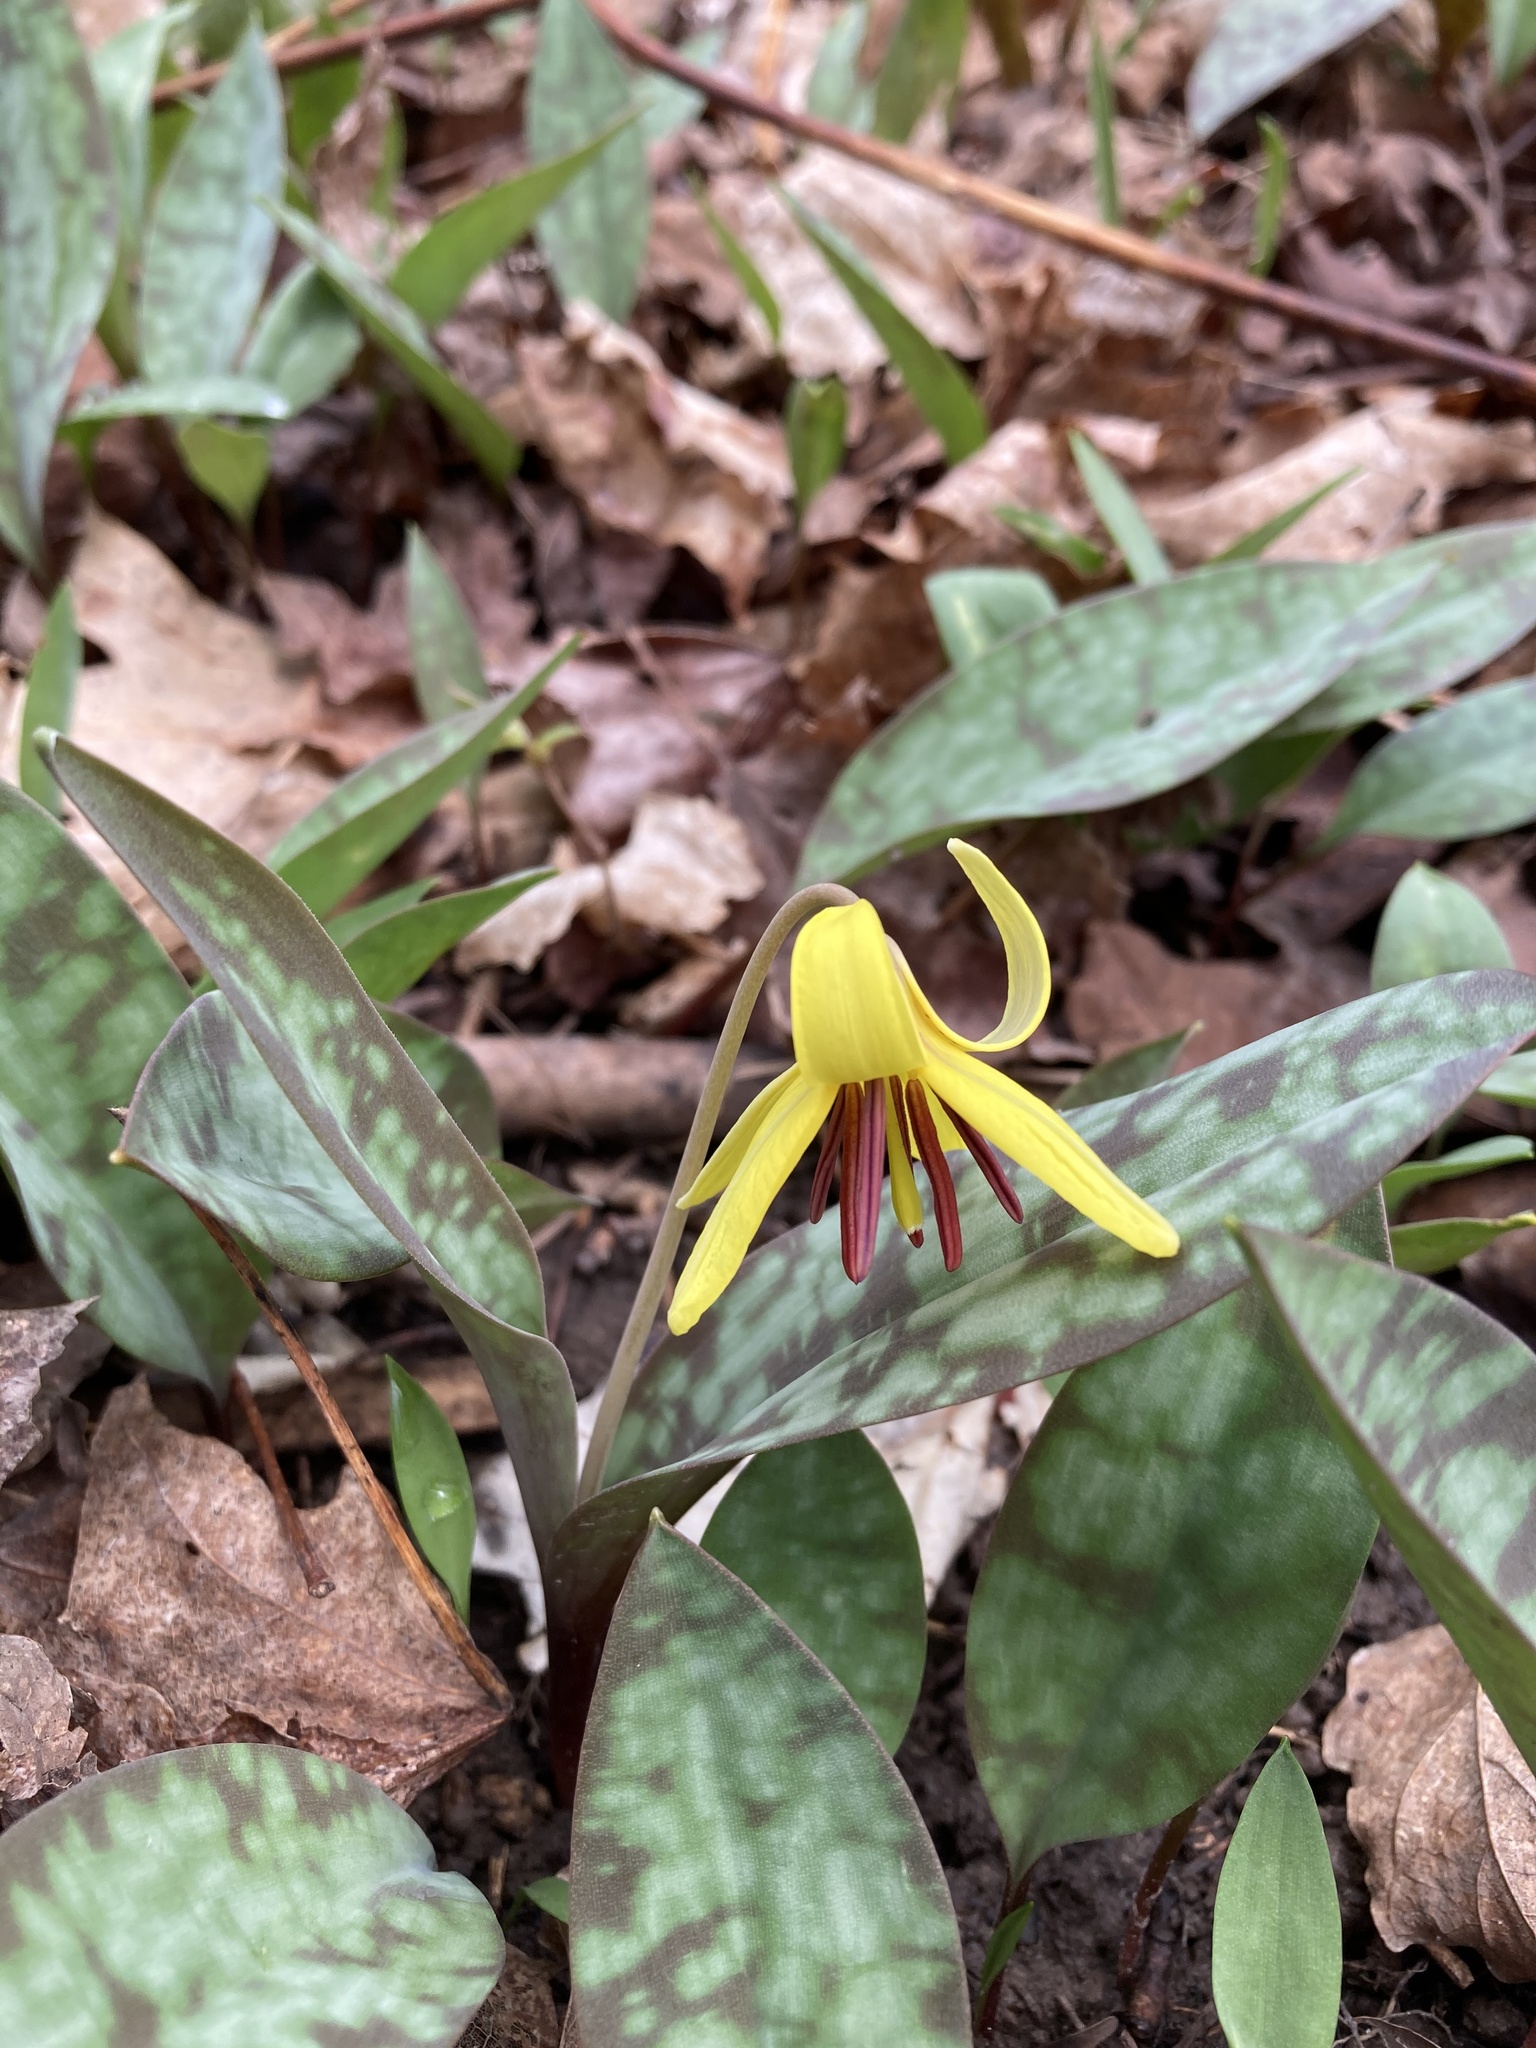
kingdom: Plantae
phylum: Tracheophyta
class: Liliopsida
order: Liliales
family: Liliaceae
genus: Erythronium
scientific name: Erythronium americanum
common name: Yellow adder's-tongue
